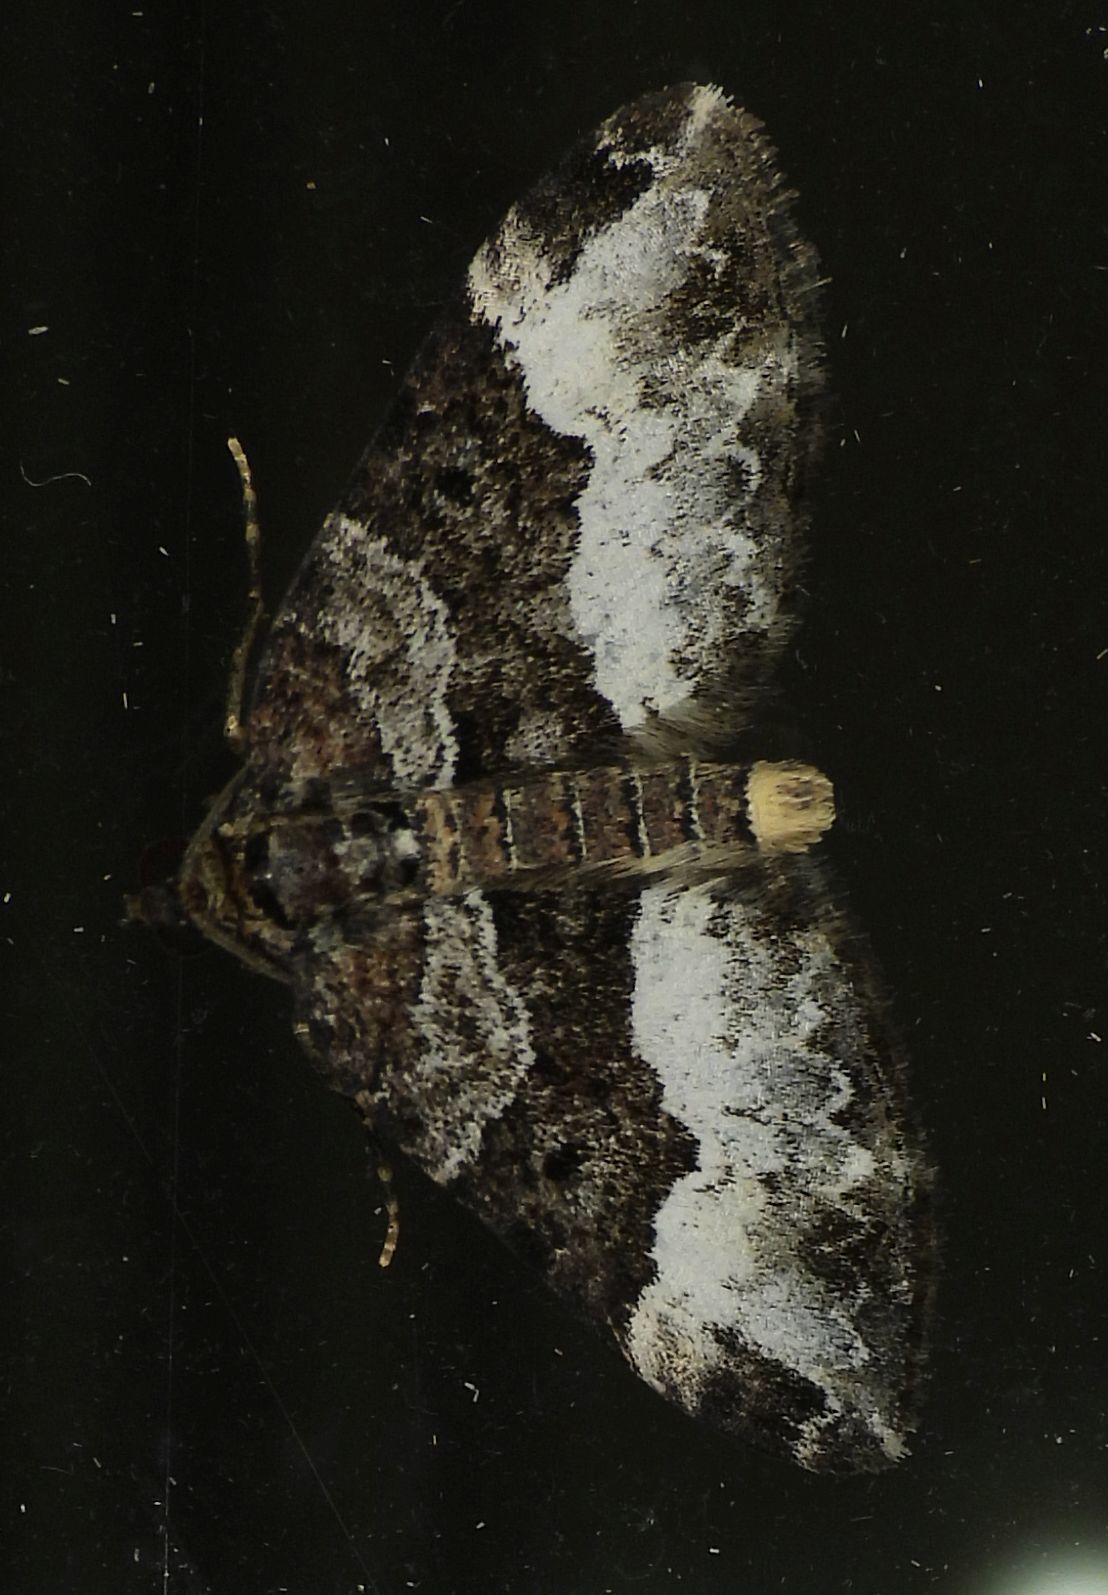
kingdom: Animalia
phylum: Arthropoda
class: Insecta
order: Lepidoptera
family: Geometridae
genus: Euphyia
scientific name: Euphyia intermediata
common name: Sharp-angled carpet
